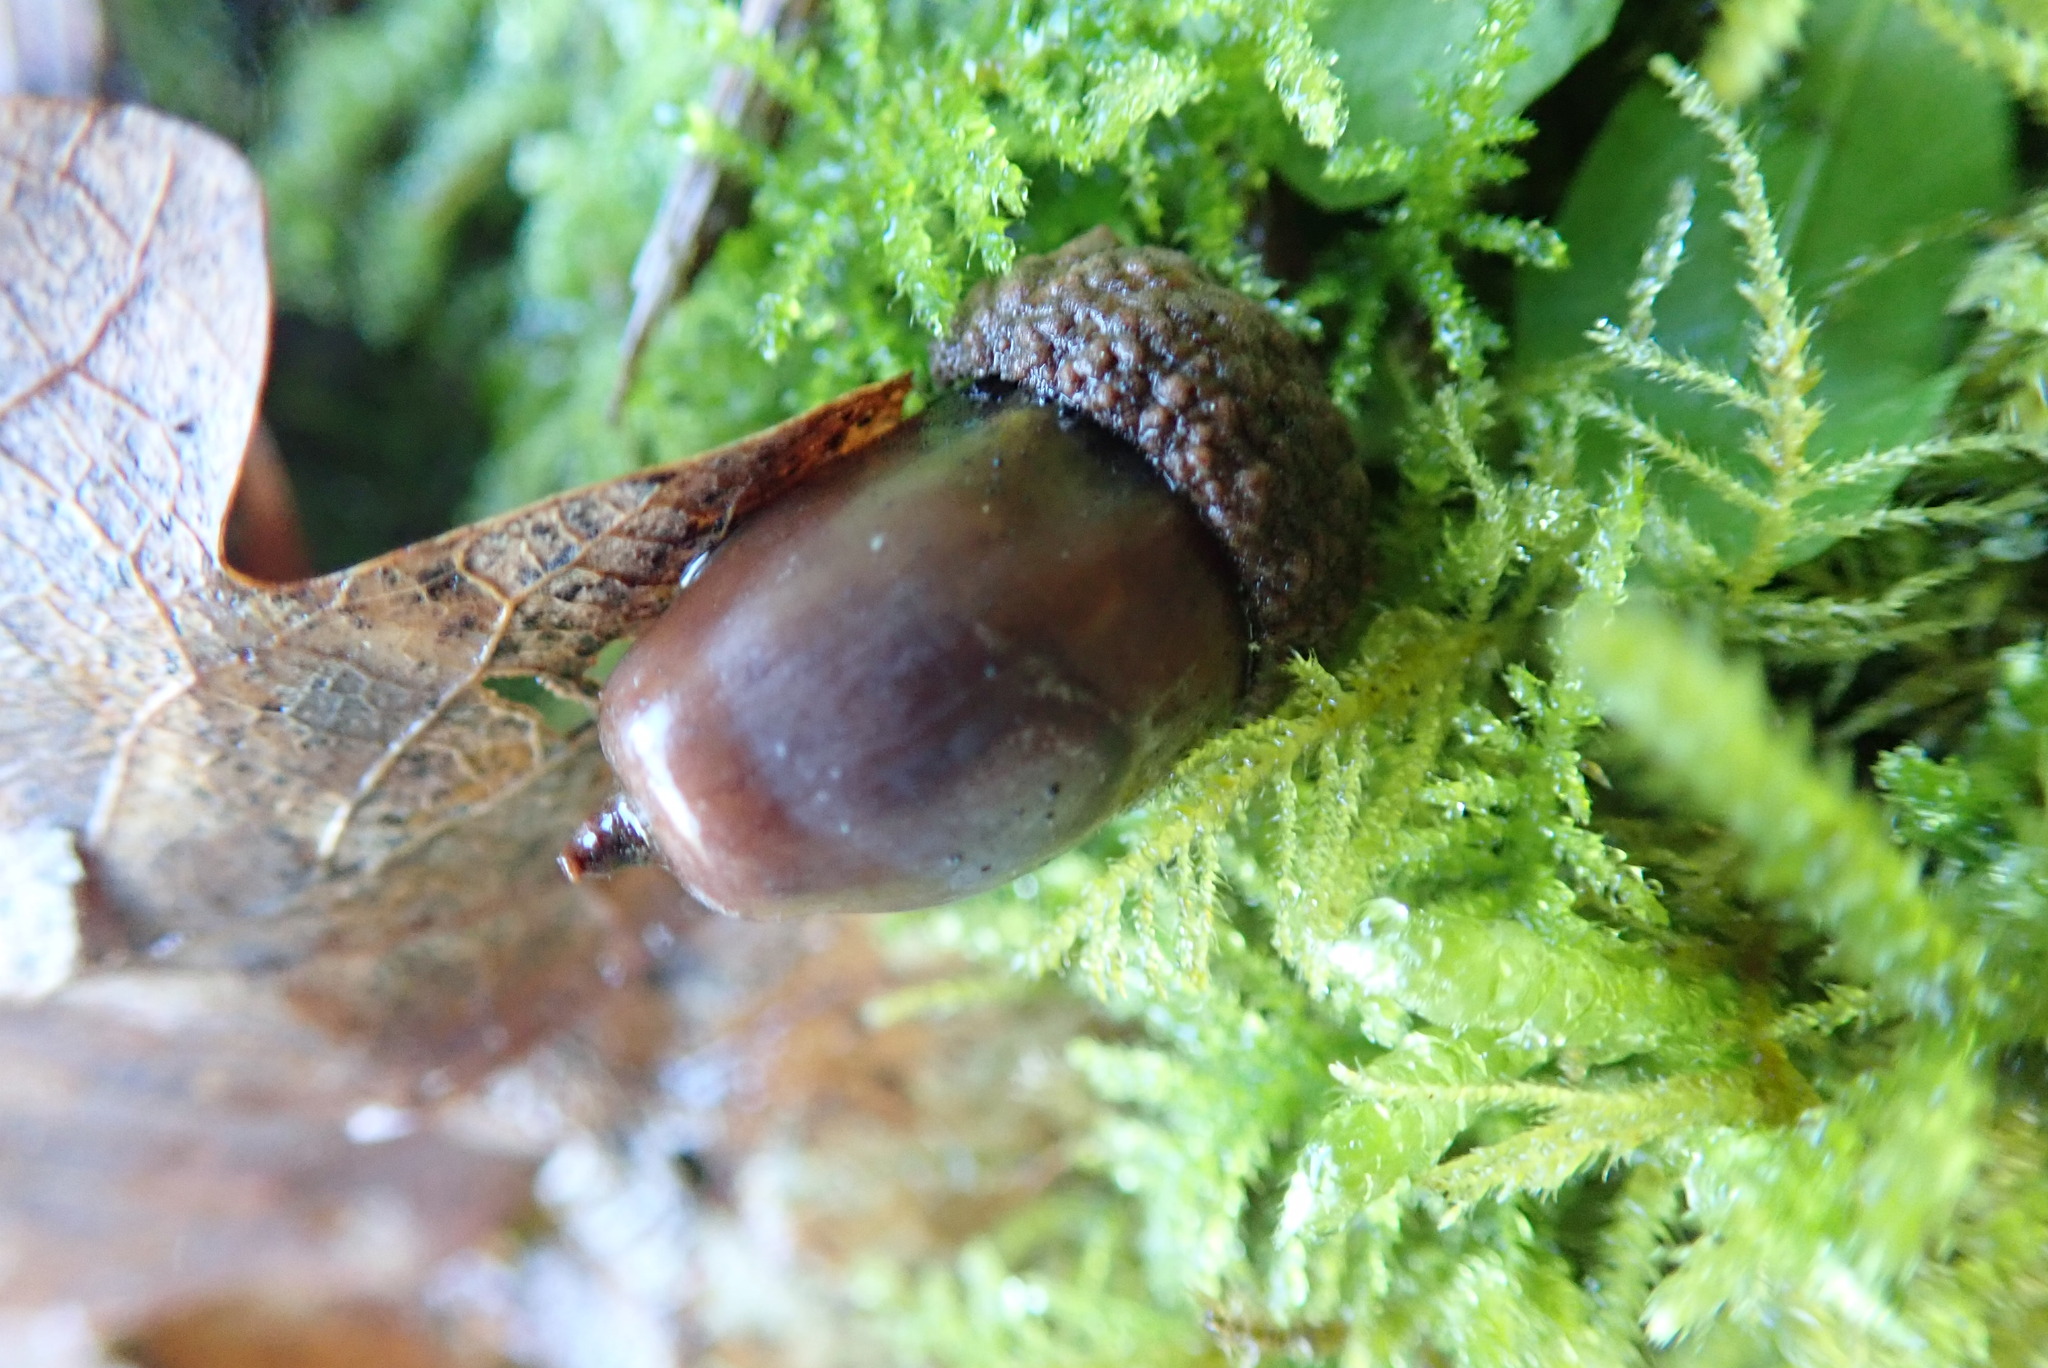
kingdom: Plantae
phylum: Tracheophyta
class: Magnoliopsida
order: Fagales
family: Fagaceae
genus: Quercus
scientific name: Quercus robur
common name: Pedunculate oak
